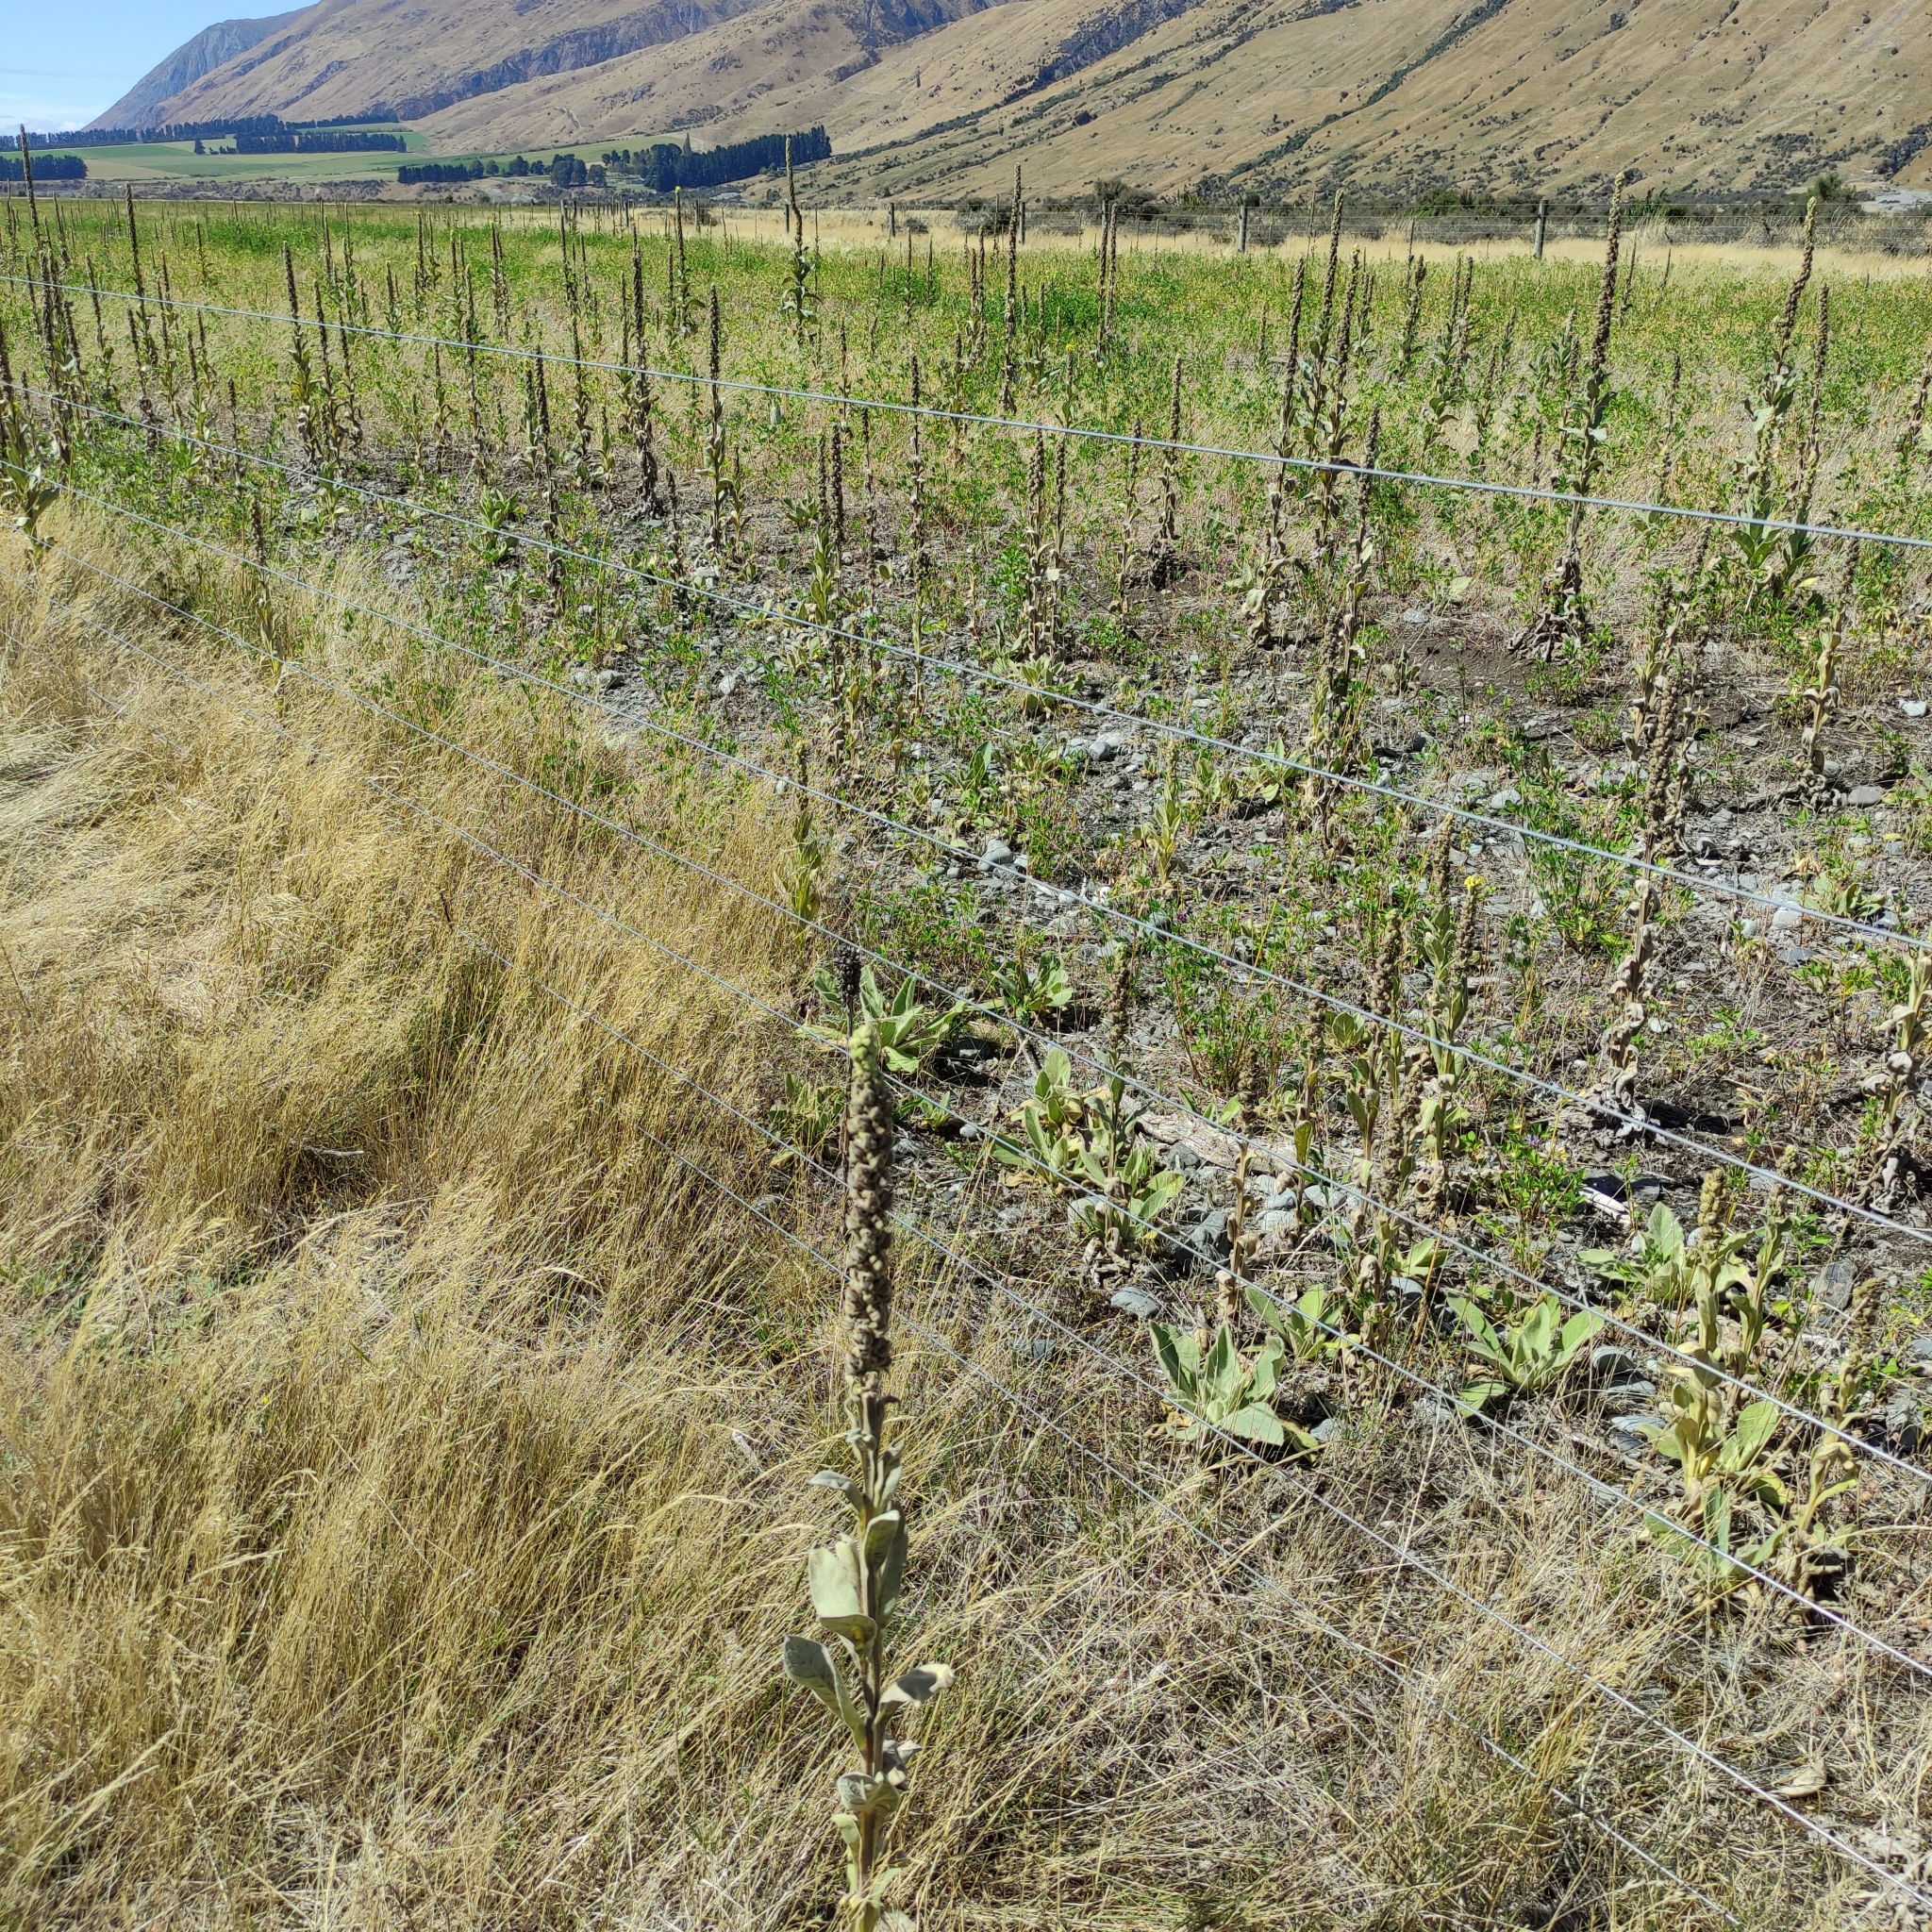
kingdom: Plantae
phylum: Tracheophyta
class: Magnoliopsida
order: Lamiales
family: Scrophulariaceae
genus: Verbascum
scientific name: Verbascum thapsus
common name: Common mullein
